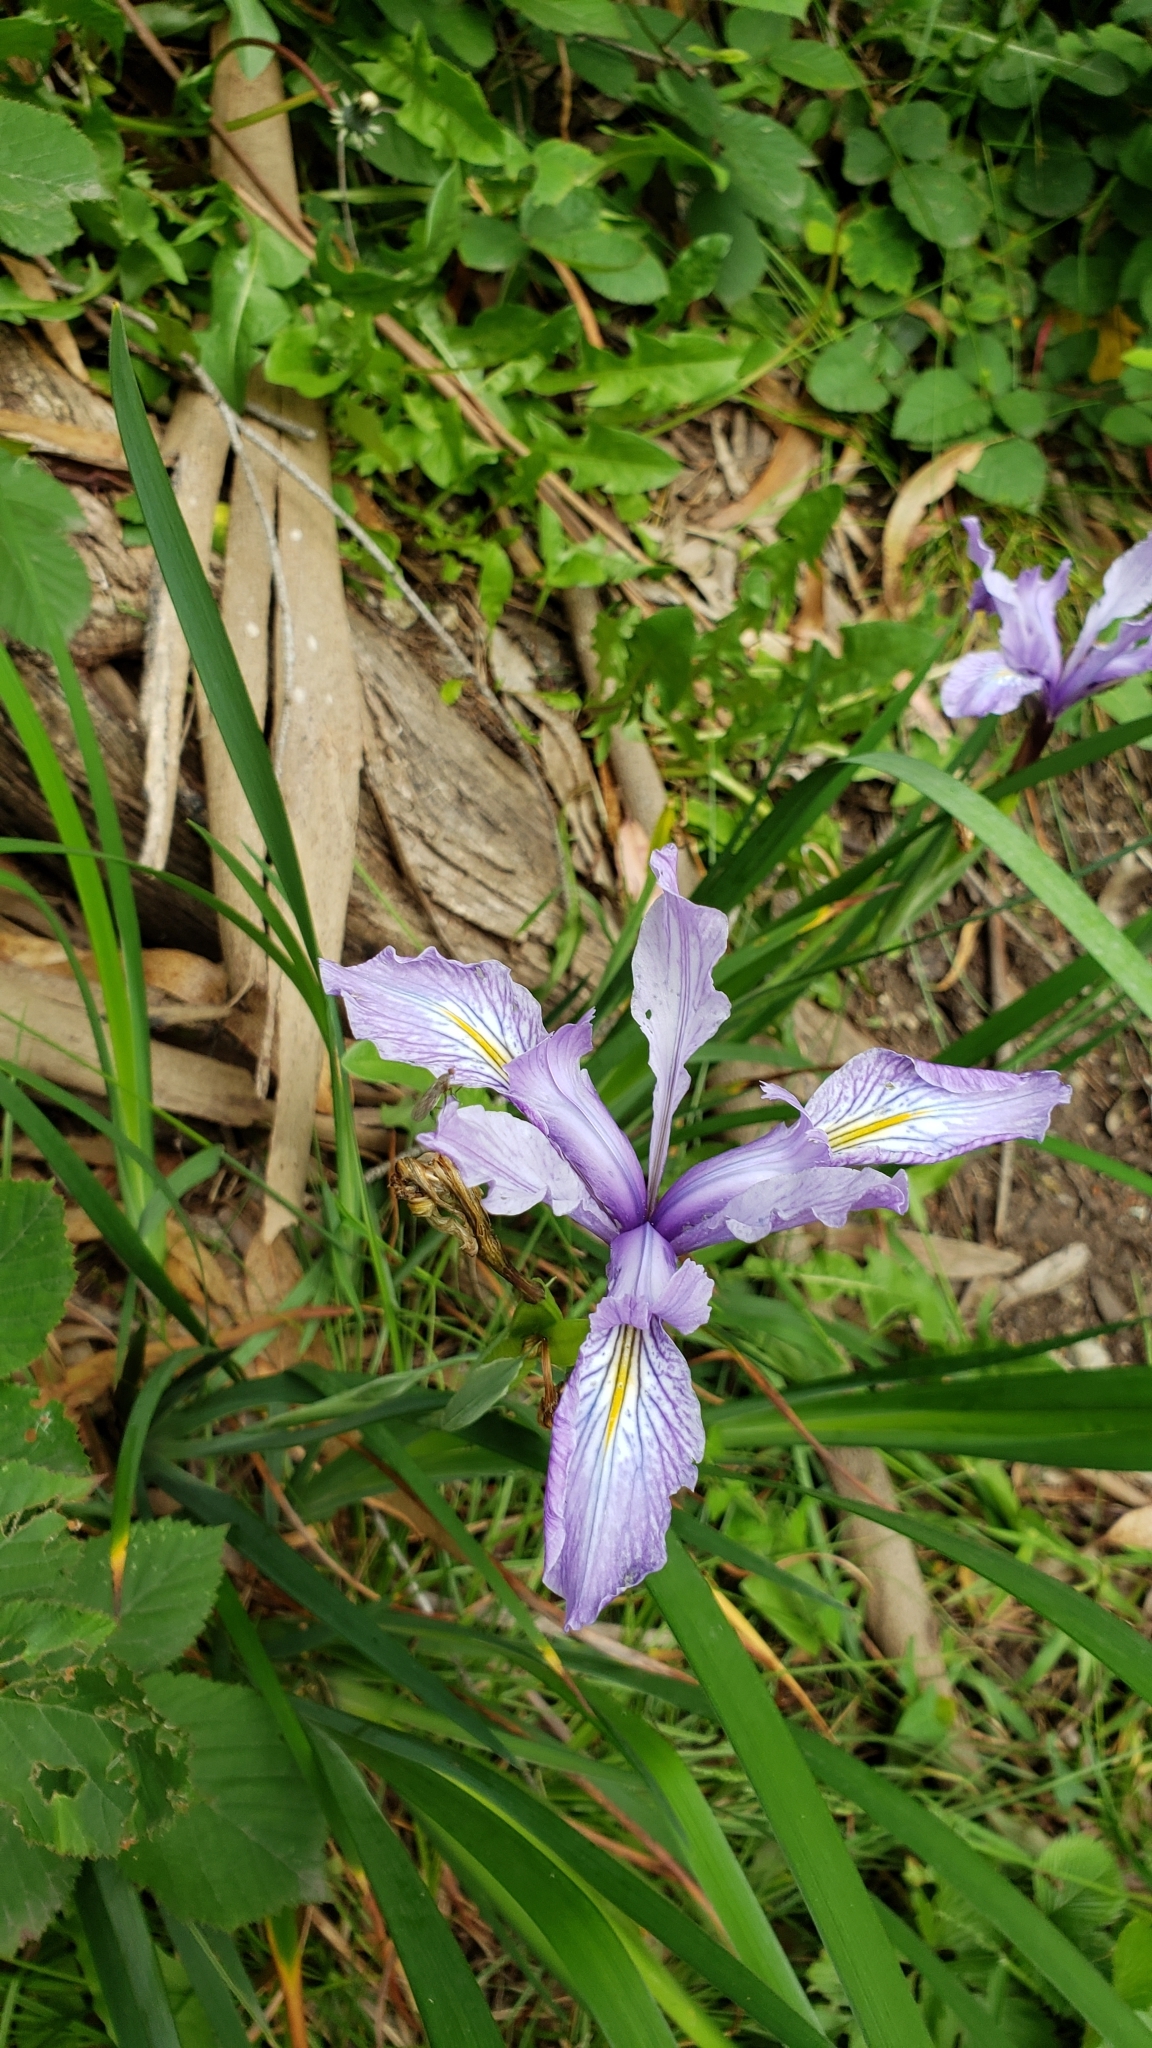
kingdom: Plantae
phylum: Tracheophyta
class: Liliopsida
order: Asparagales
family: Iridaceae
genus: Iris
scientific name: Iris douglasiana
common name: Marin iris
